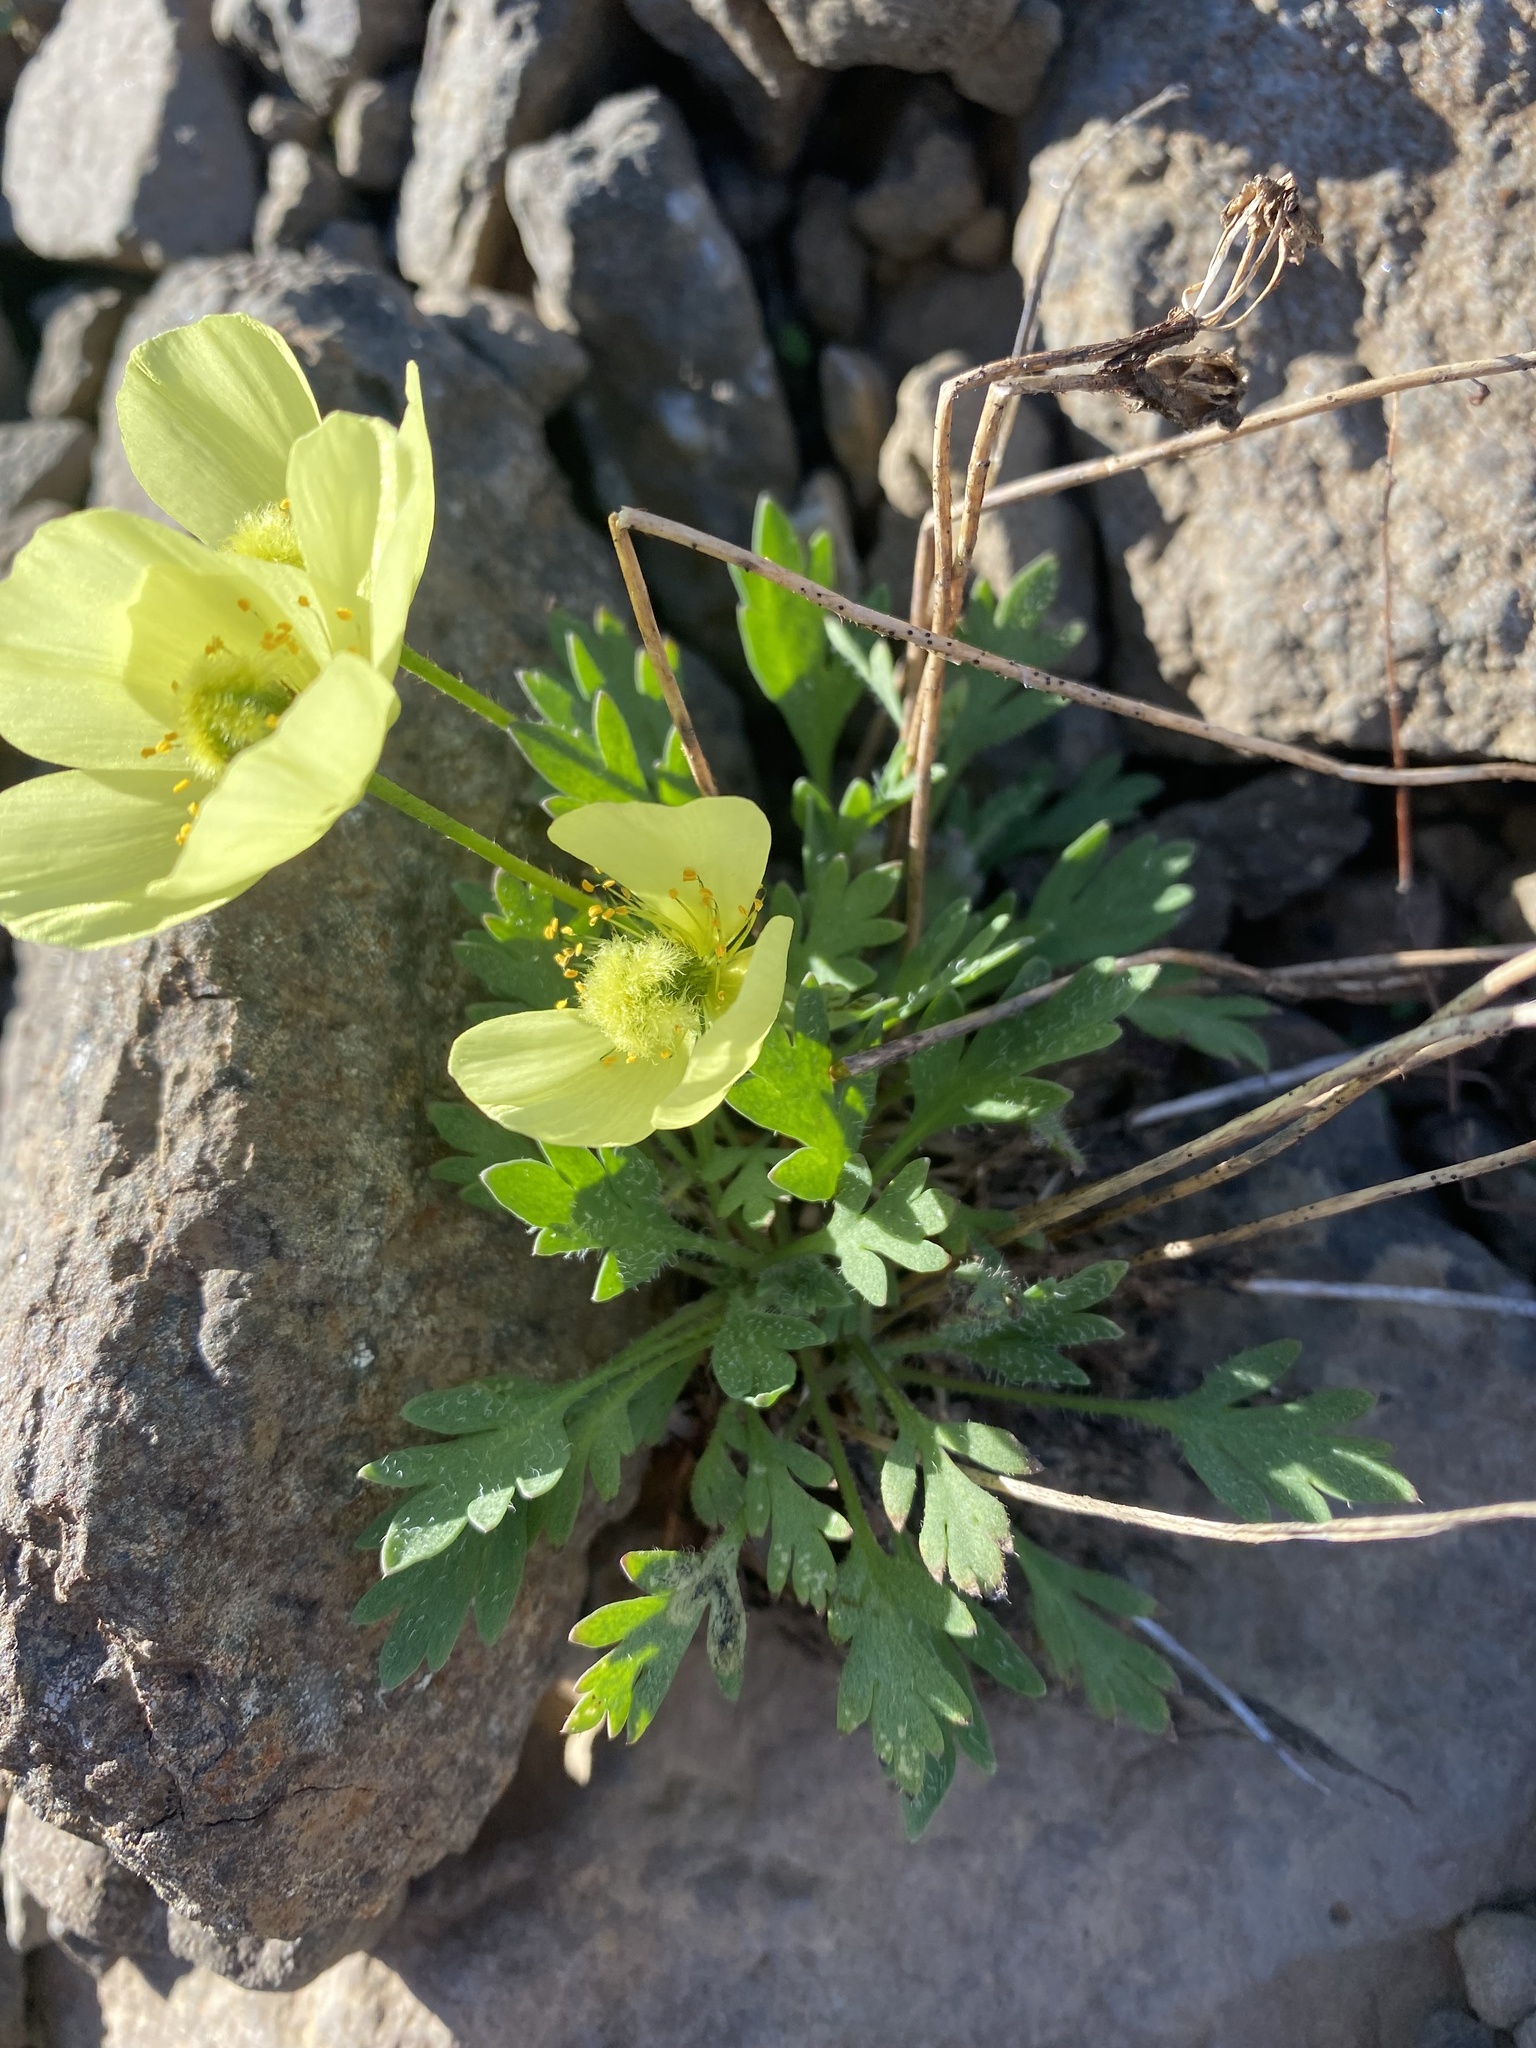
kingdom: Plantae
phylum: Tracheophyta
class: Magnoliopsida
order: Ranunculales
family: Papaveraceae
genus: Papaver
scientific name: Papaver lapponicum
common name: Lapland poppy
